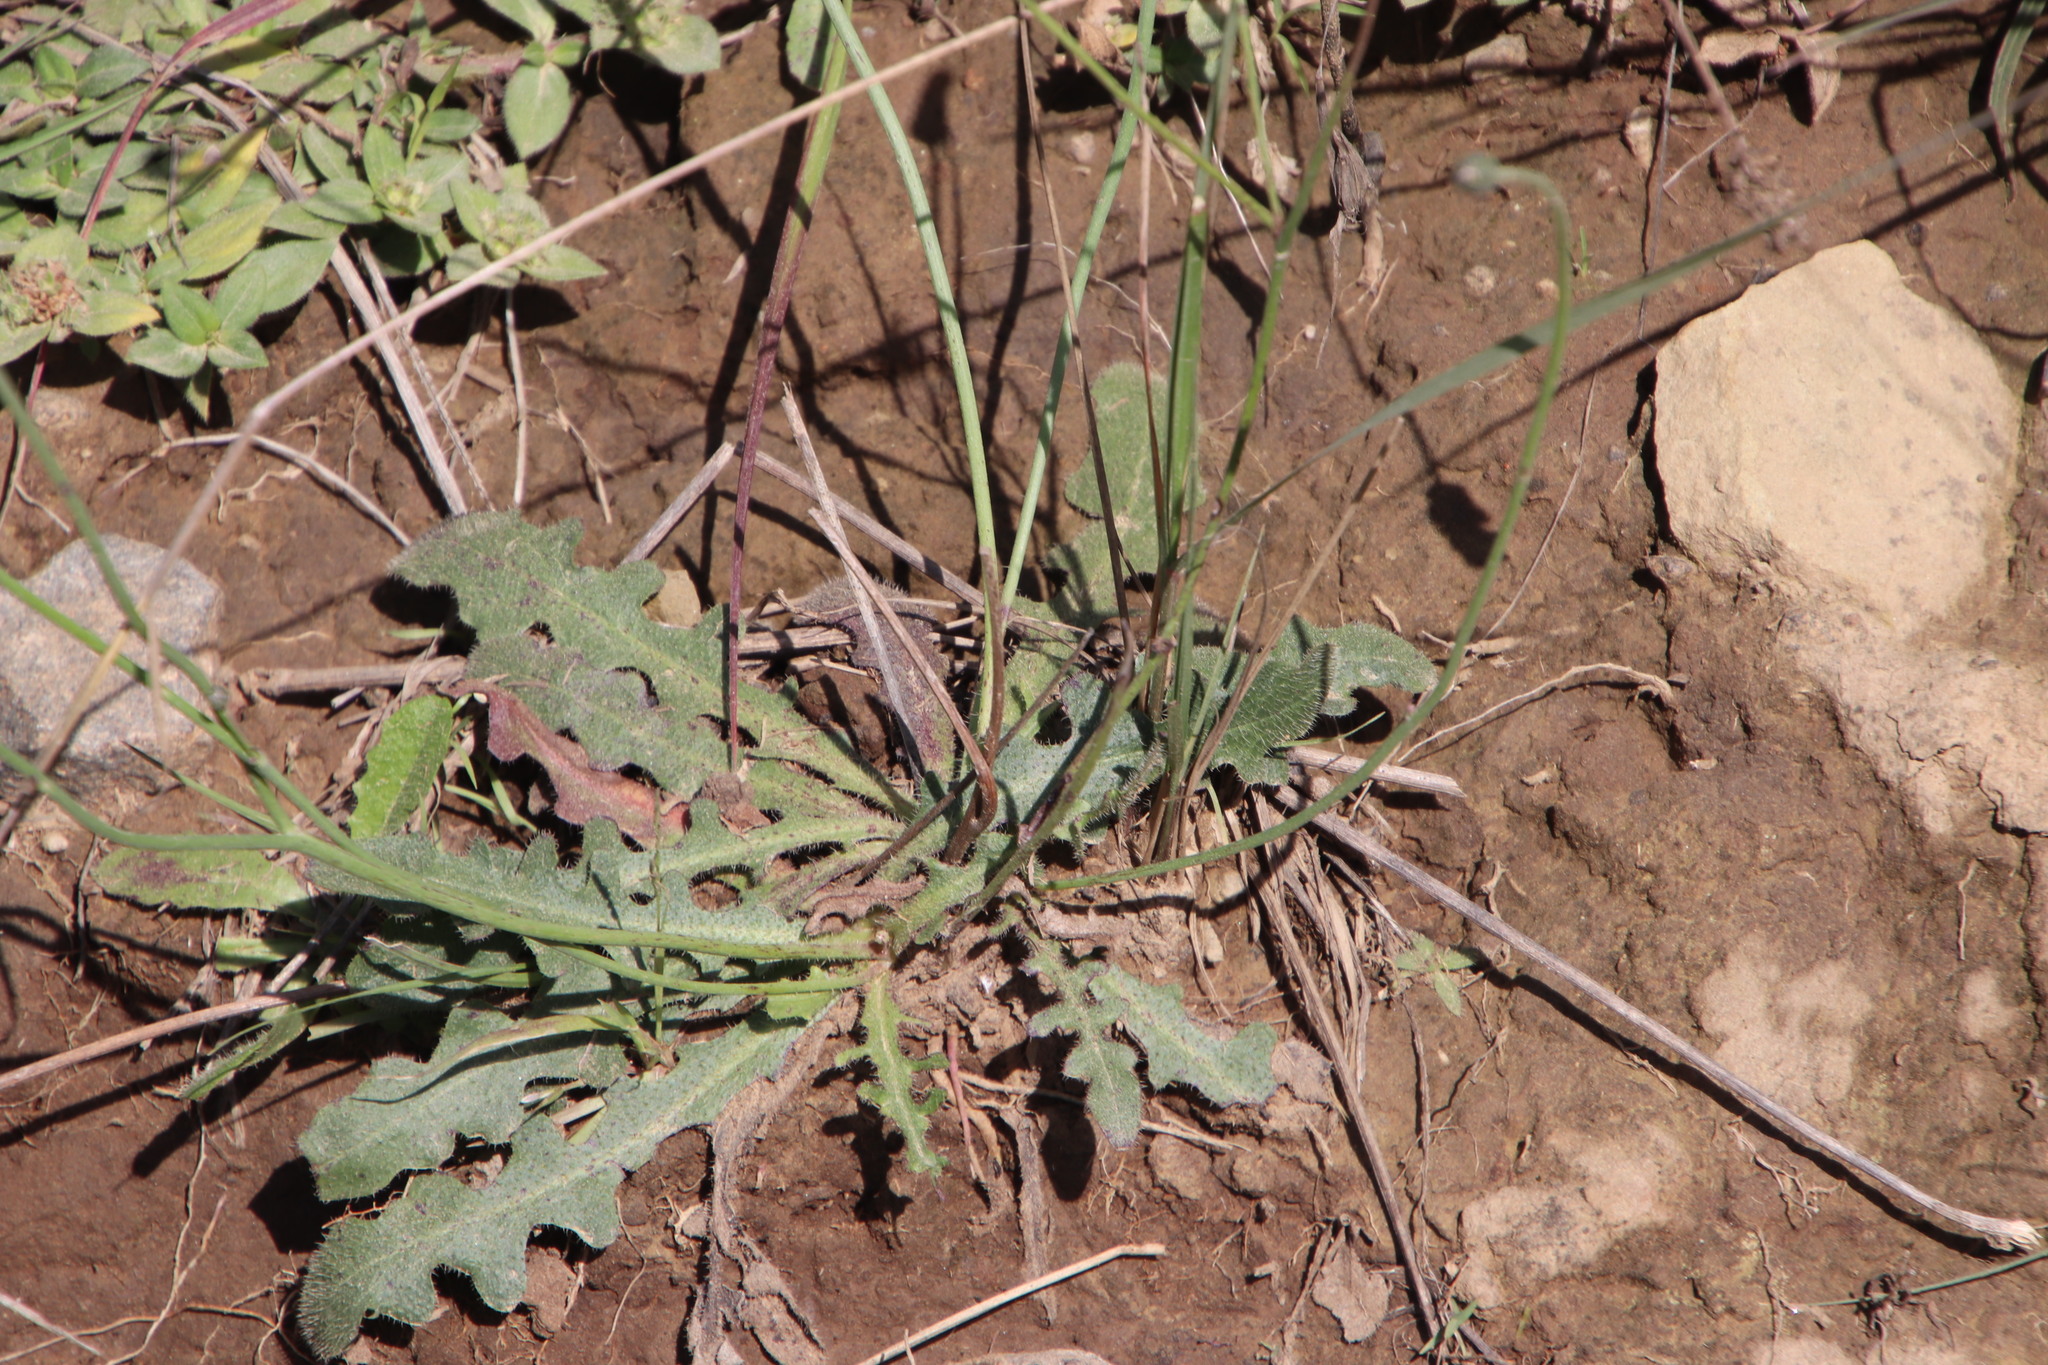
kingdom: Plantae
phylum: Tracheophyta
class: Magnoliopsida
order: Asterales
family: Asteraceae
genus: Hypochaeris
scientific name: Hypochaeris radicata
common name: Flatweed
